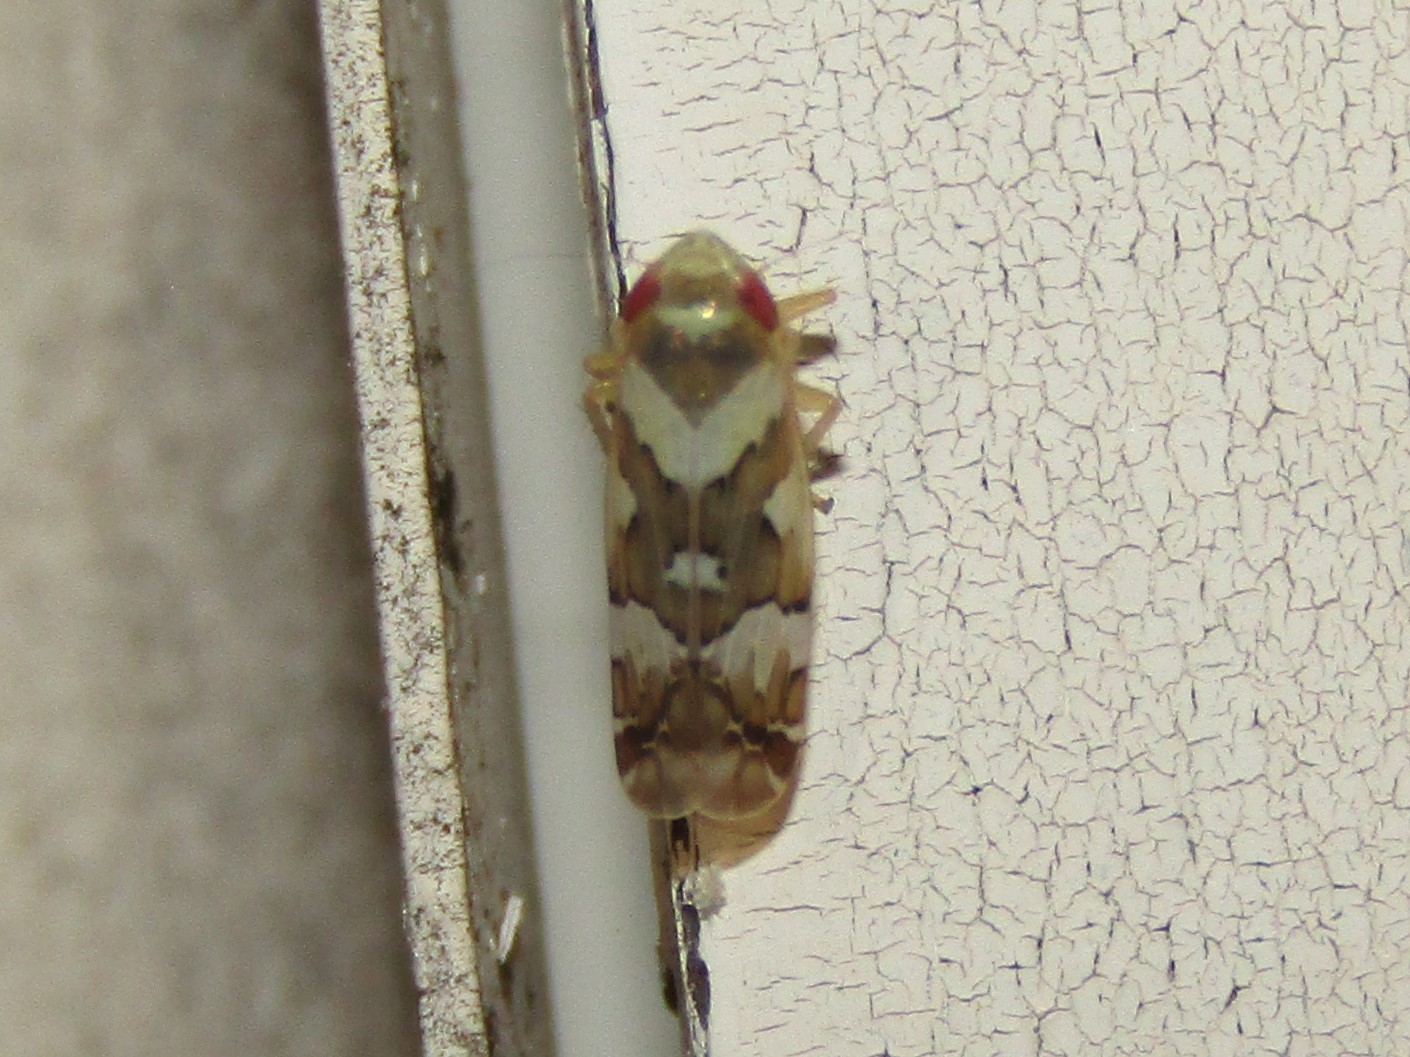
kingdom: Animalia
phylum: Arthropoda
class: Insecta
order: Hemiptera
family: Cicadellidae
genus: Sanctanus
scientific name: Sanctanus sanctus
